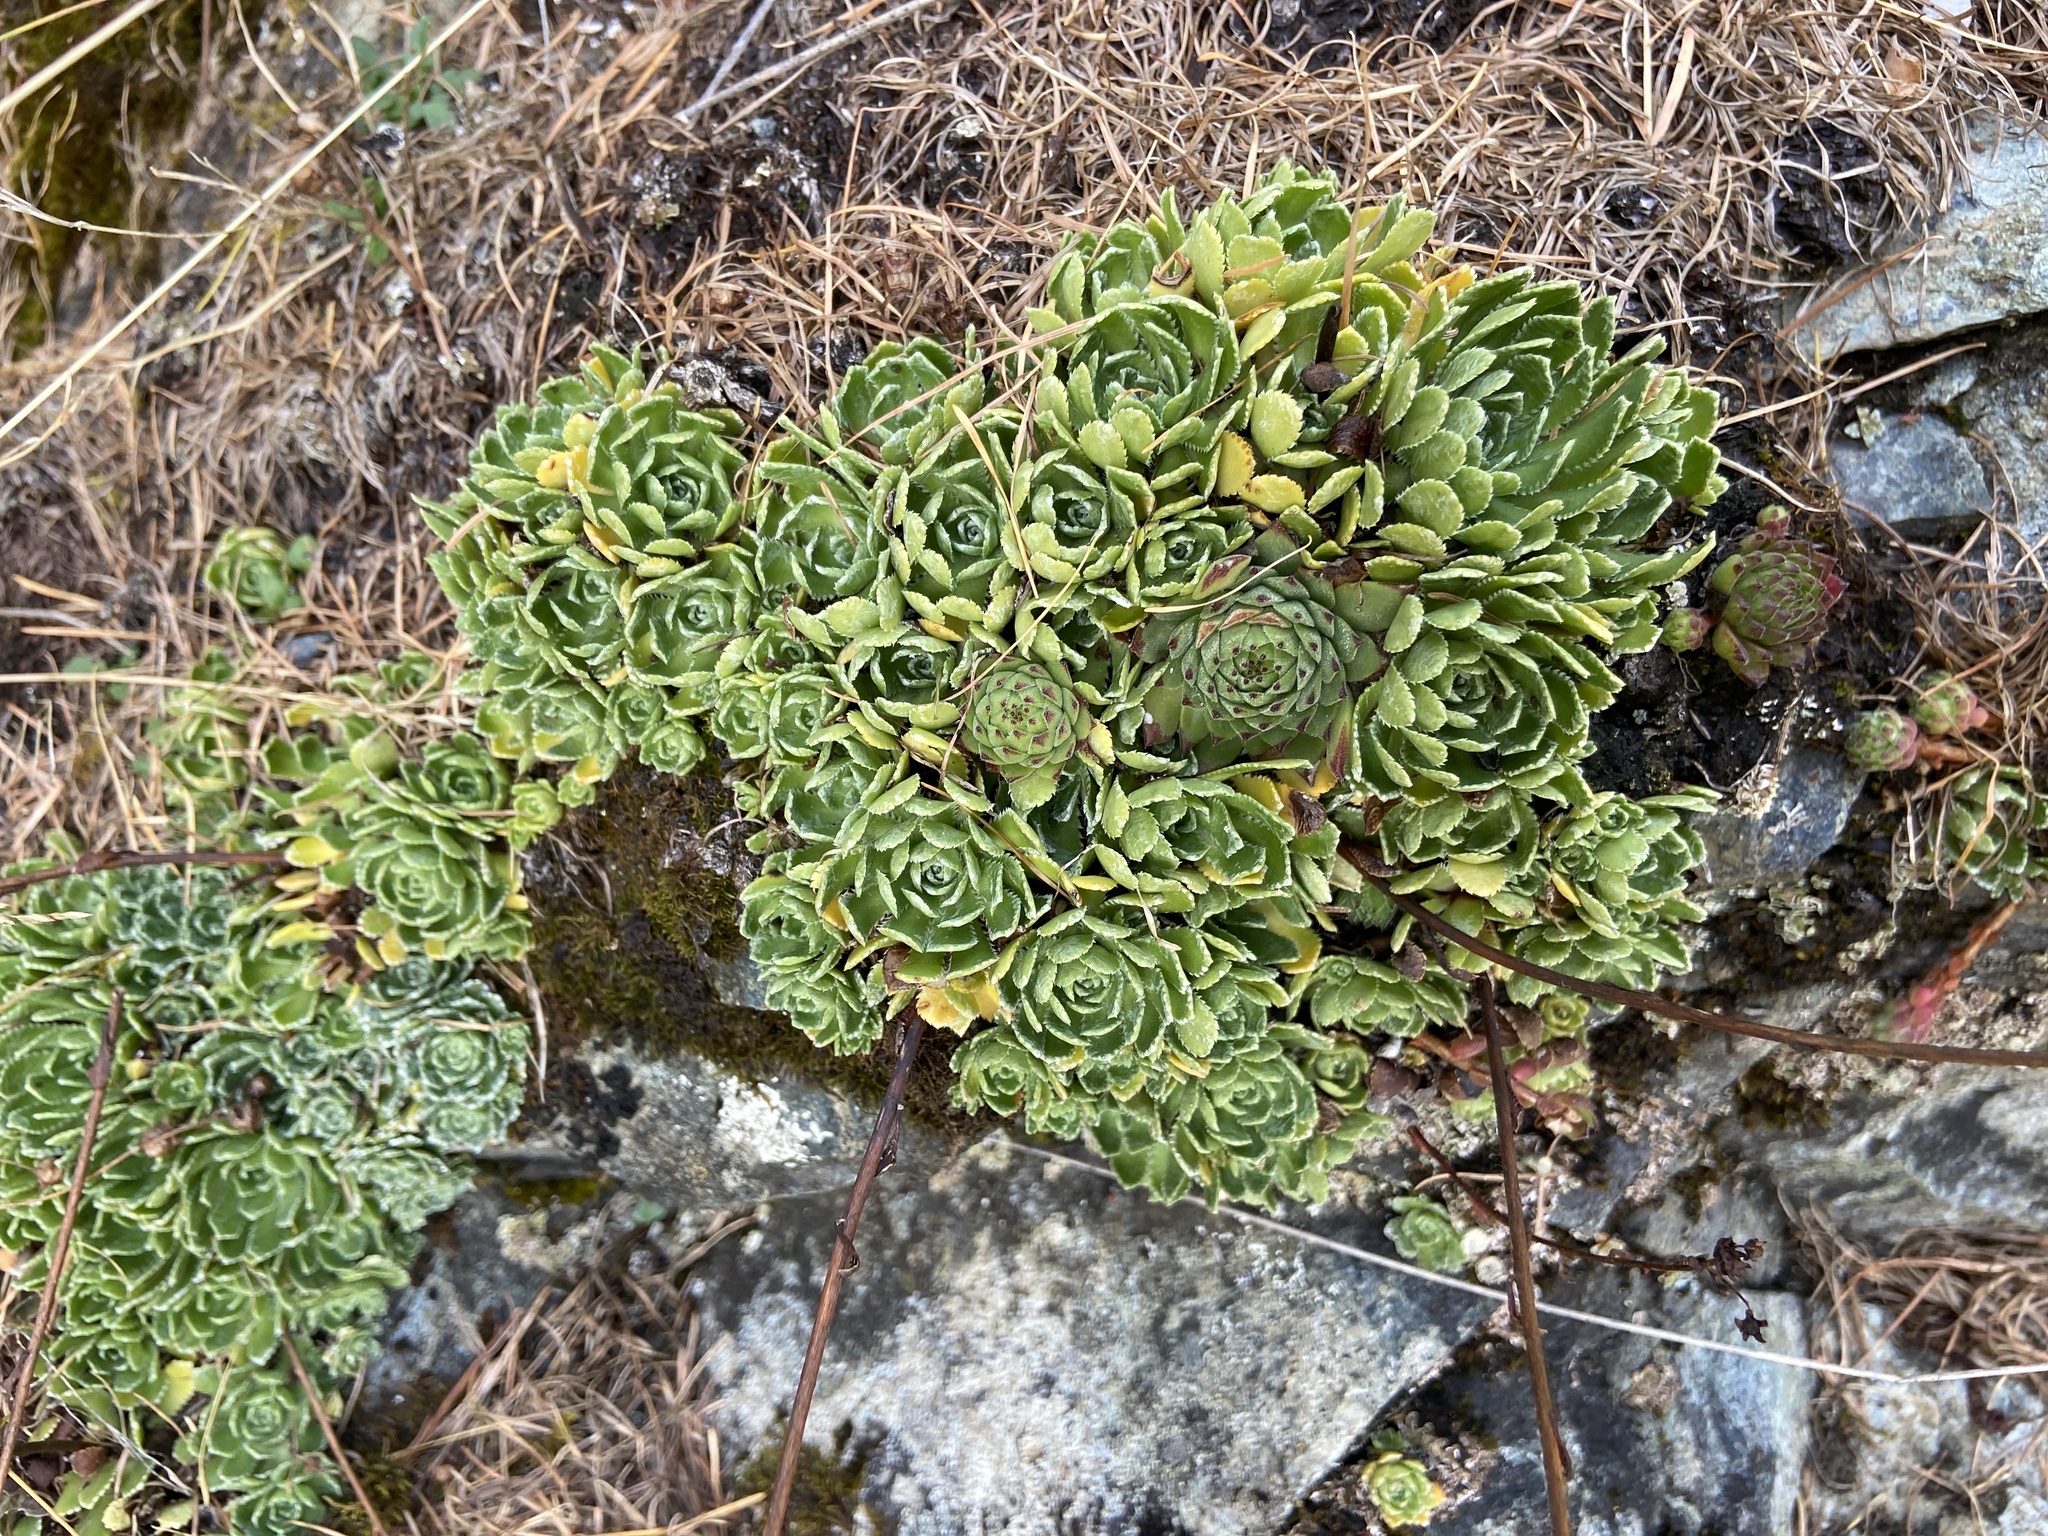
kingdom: Plantae
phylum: Tracheophyta
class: Magnoliopsida
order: Saxifragales
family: Saxifragaceae
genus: Saxifraga
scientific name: Saxifraga paniculata
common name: Livelong saxifrage
